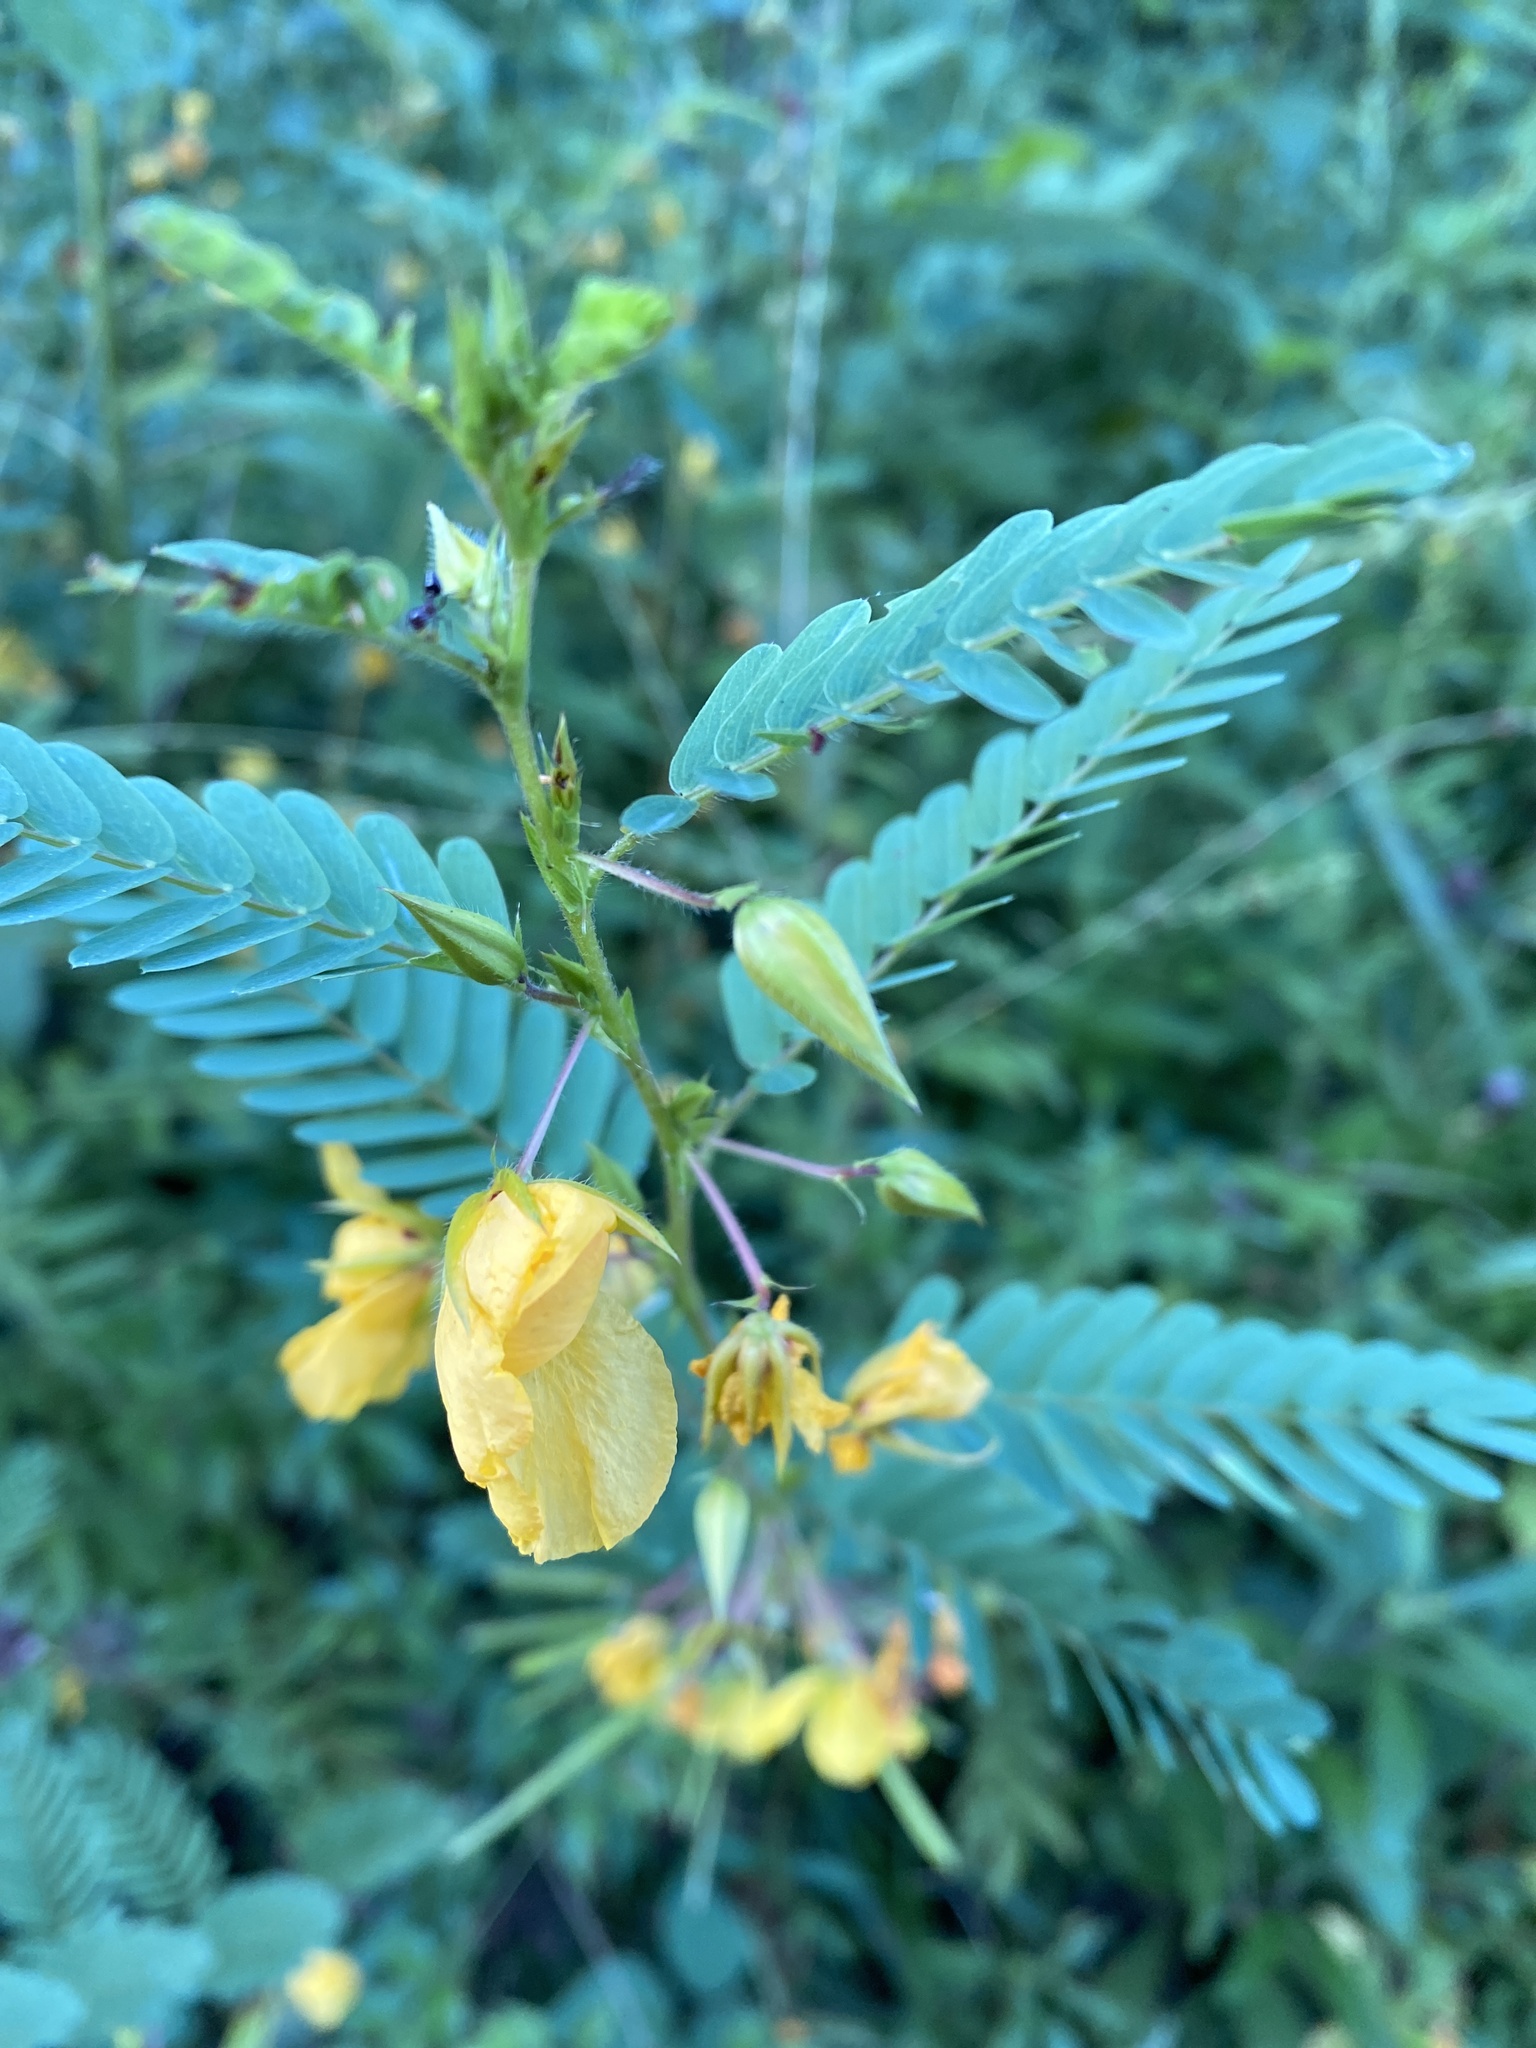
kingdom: Plantae
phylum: Tracheophyta
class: Magnoliopsida
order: Fabales
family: Fabaceae
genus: Chamaecrista
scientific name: Chamaecrista fasciculata
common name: Golden cassia
